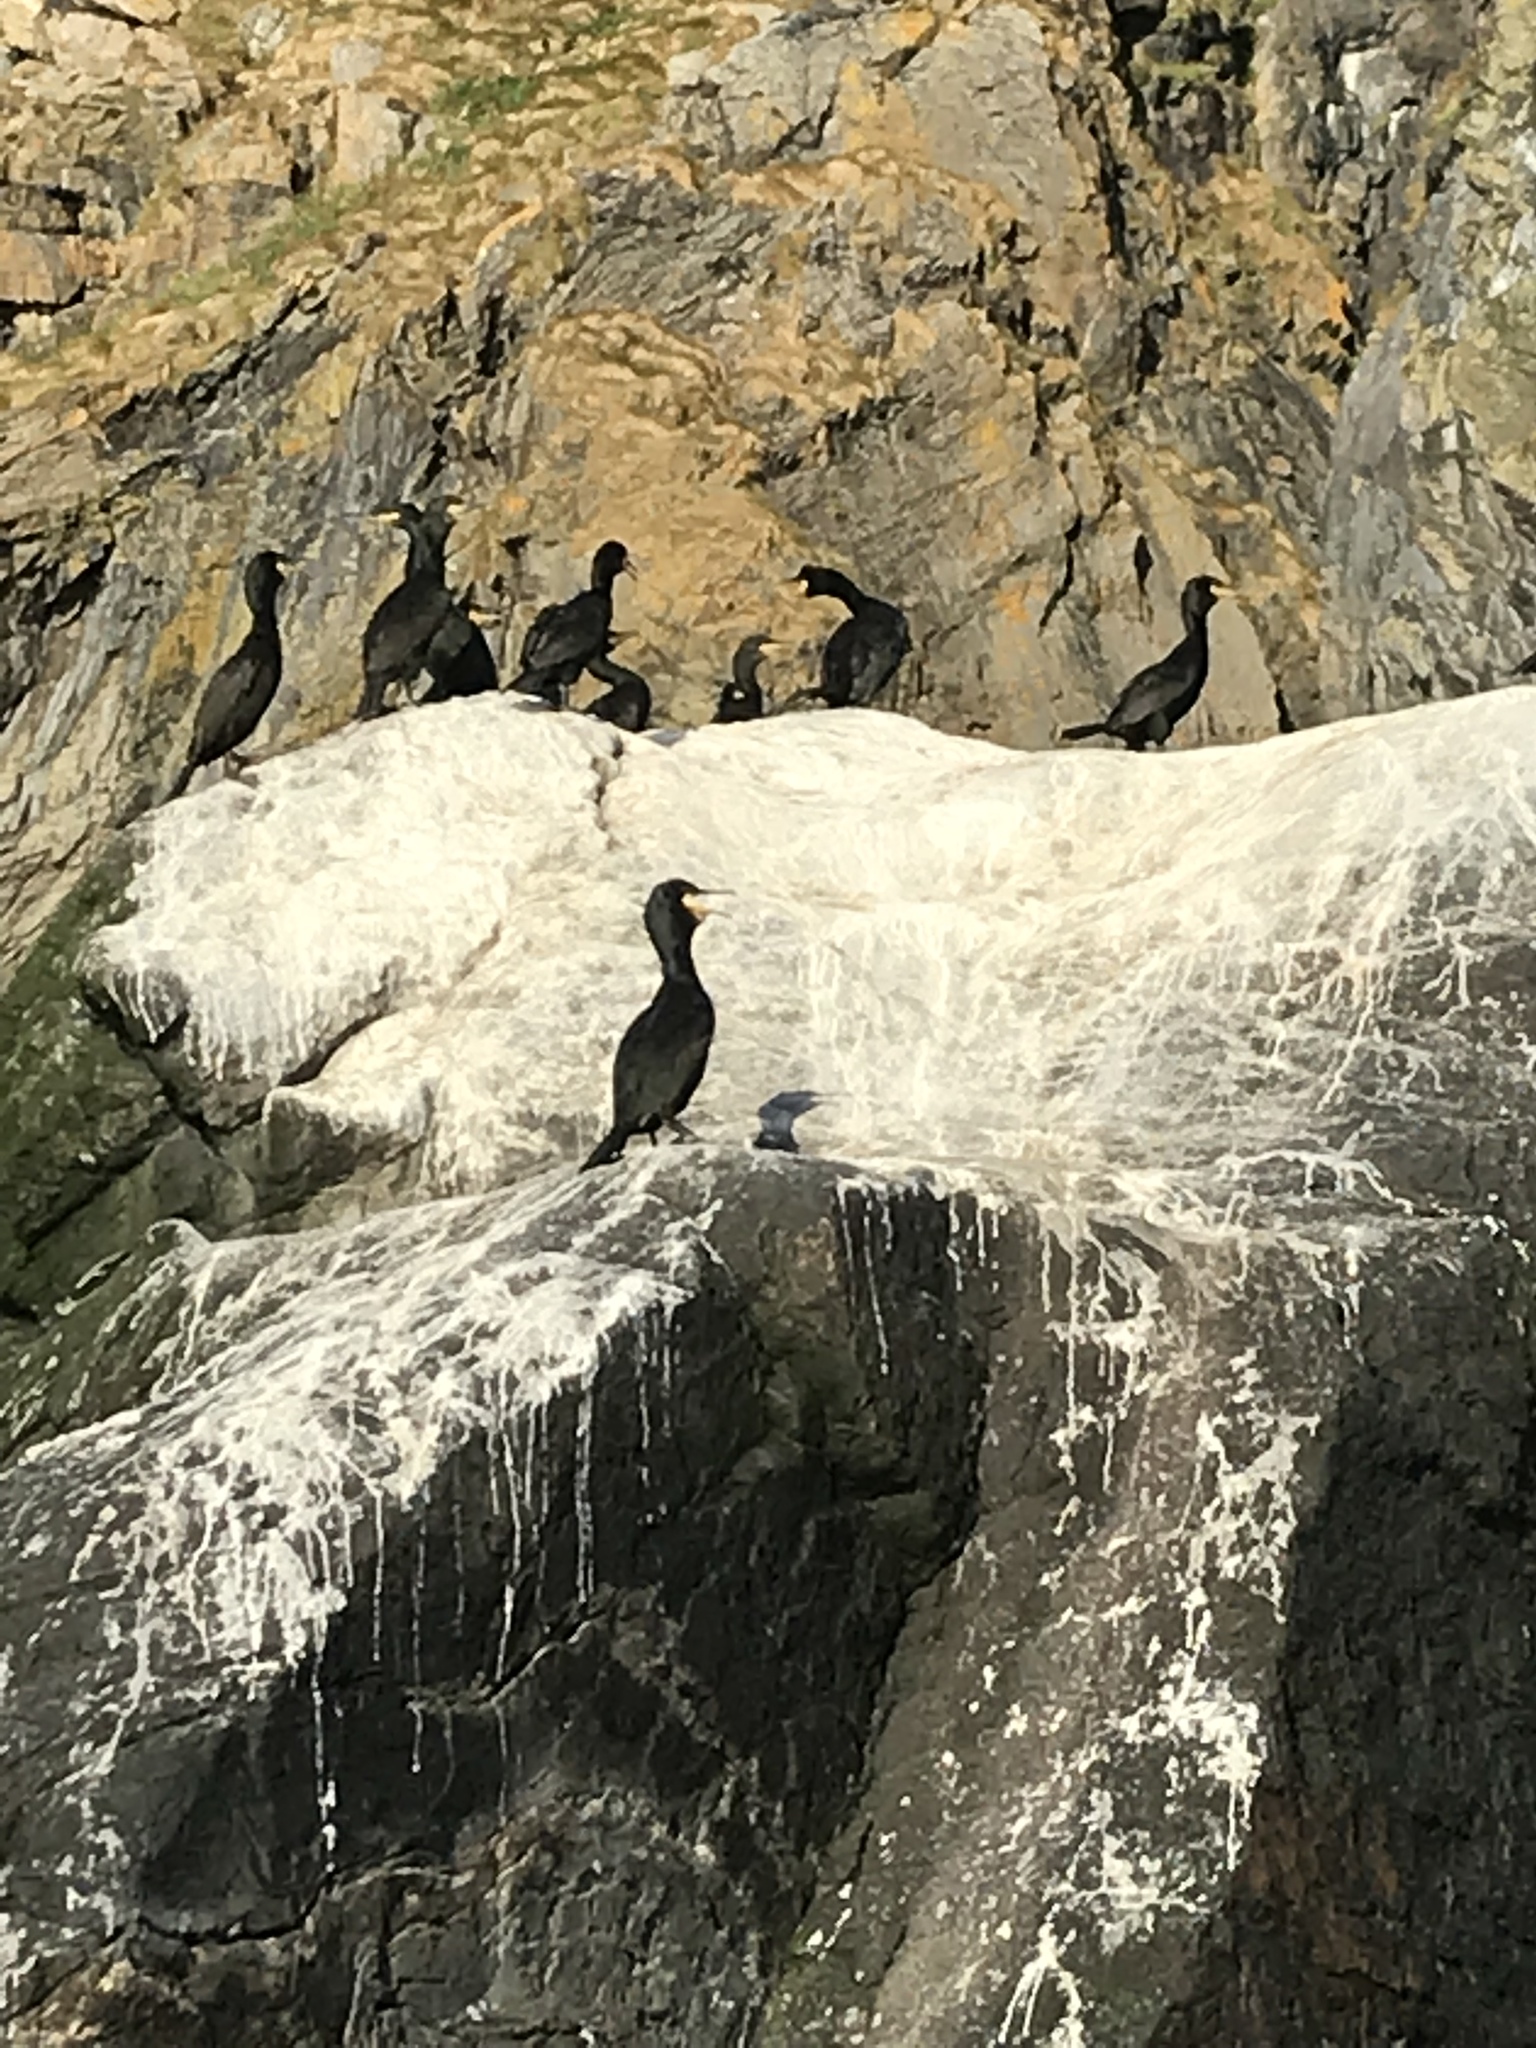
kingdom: Animalia
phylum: Chordata
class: Aves
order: Suliformes
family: Phalacrocoracidae
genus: Phalacrocorax
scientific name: Phalacrocorax aristotelis
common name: European shag
